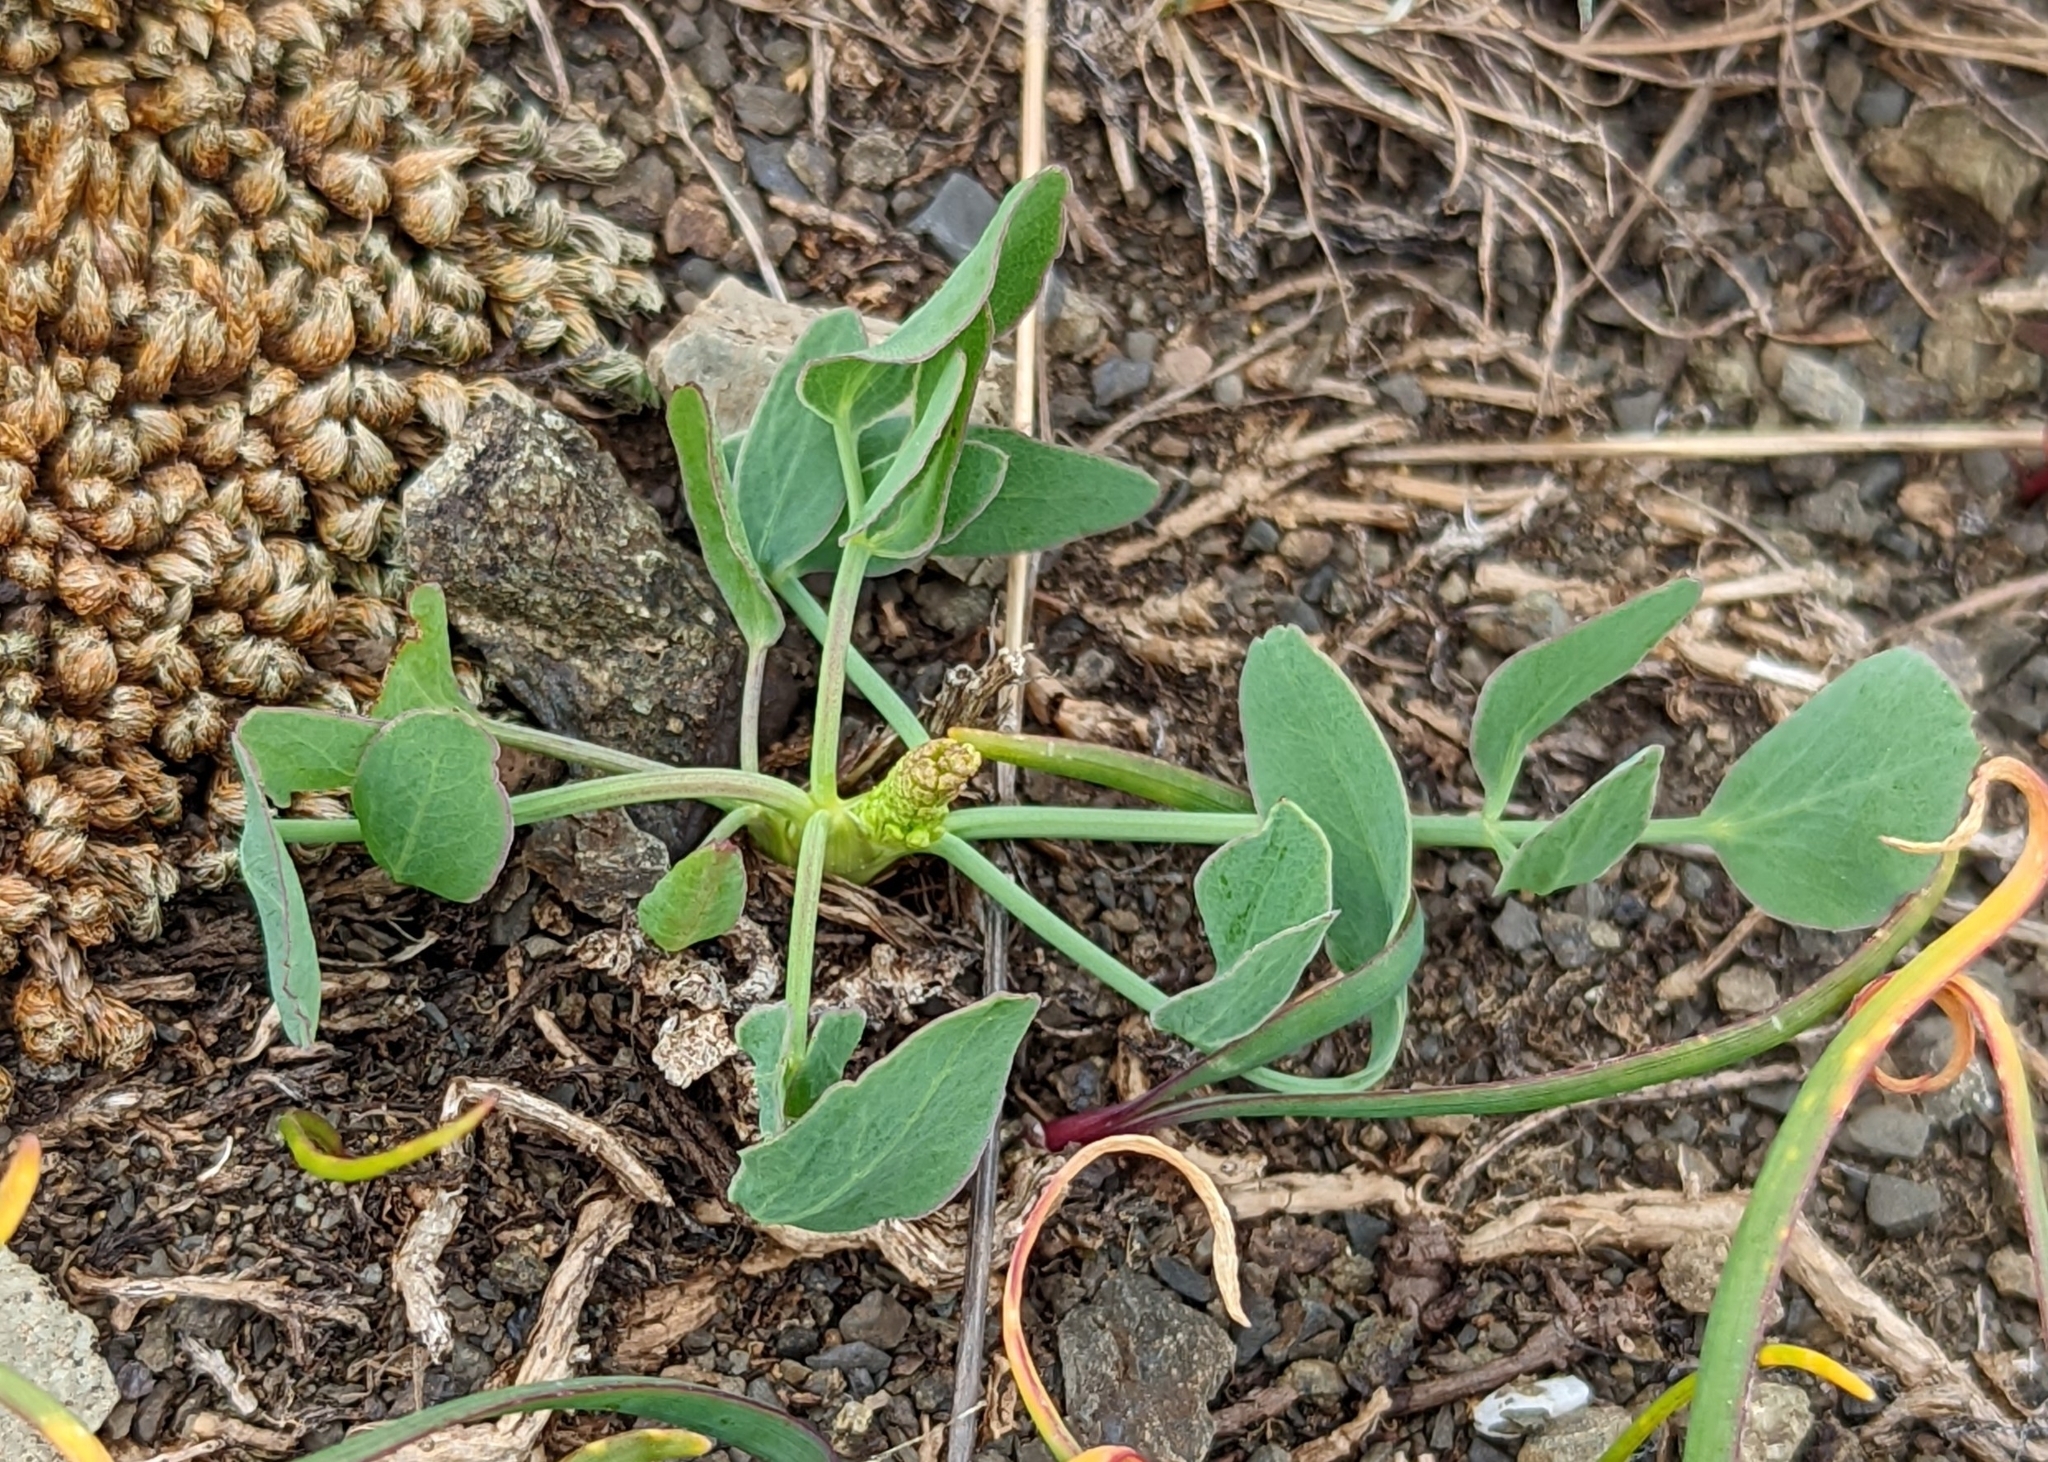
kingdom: Plantae
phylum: Tracheophyta
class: Magnoliopsida
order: Apiales
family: Apiaceae
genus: Lomatium
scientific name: Lomatium nudicaule
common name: Pestle lomatium
